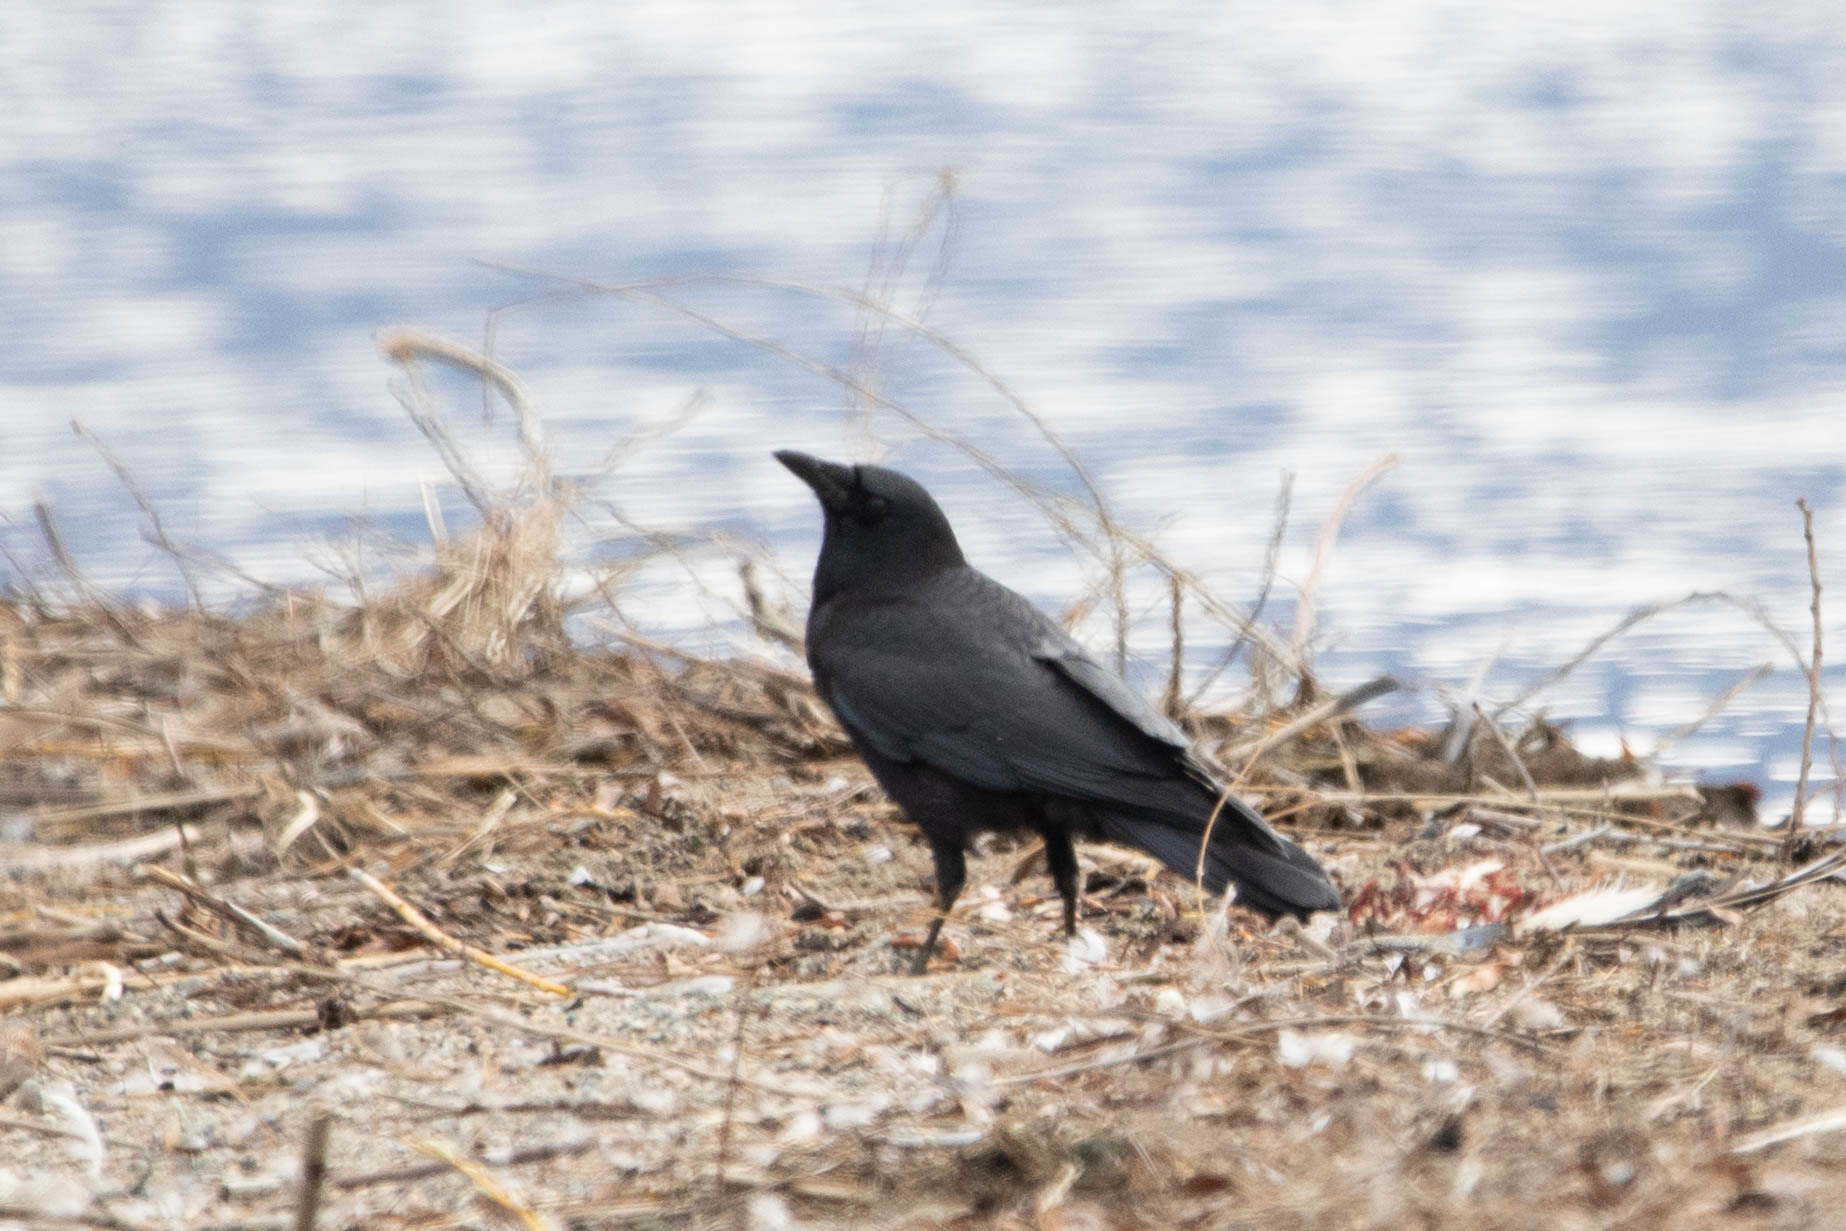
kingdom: Animalia
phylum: Chordata
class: Aves
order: Passeriformes
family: Corvidae
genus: Corvus
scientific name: Corvus brachyrhynchos
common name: American crow
